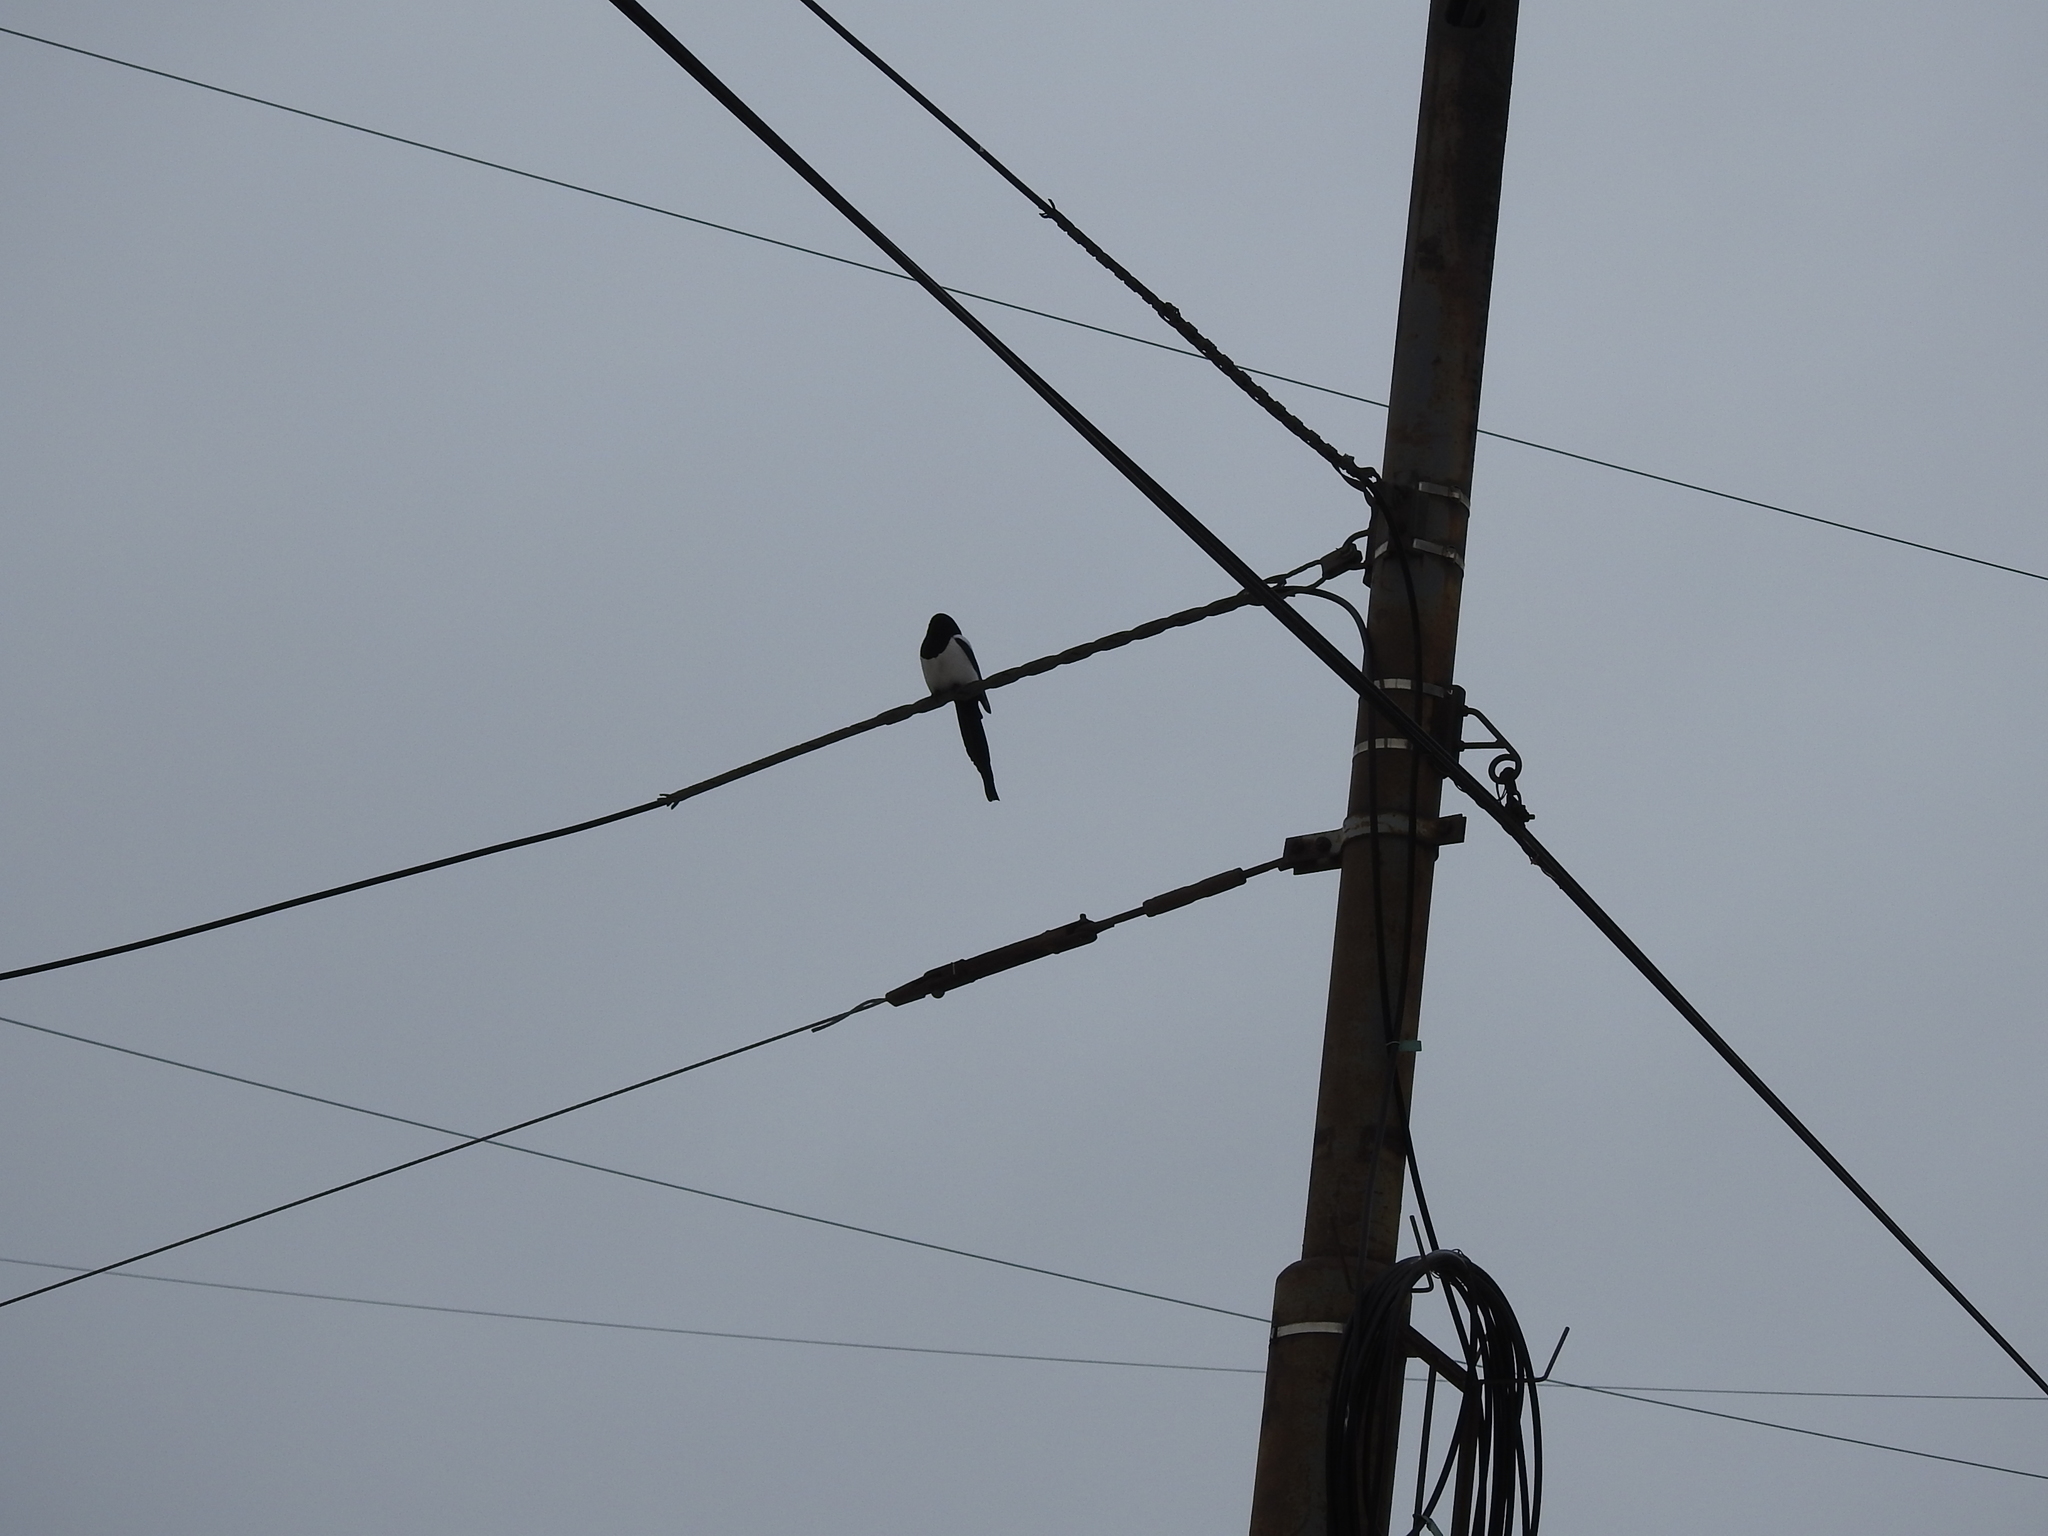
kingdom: Animalia
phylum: Chordata
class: Aves
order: Passeriformes
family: Corvidae
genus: Pica
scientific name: Pica pica
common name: Eurasian magpie
